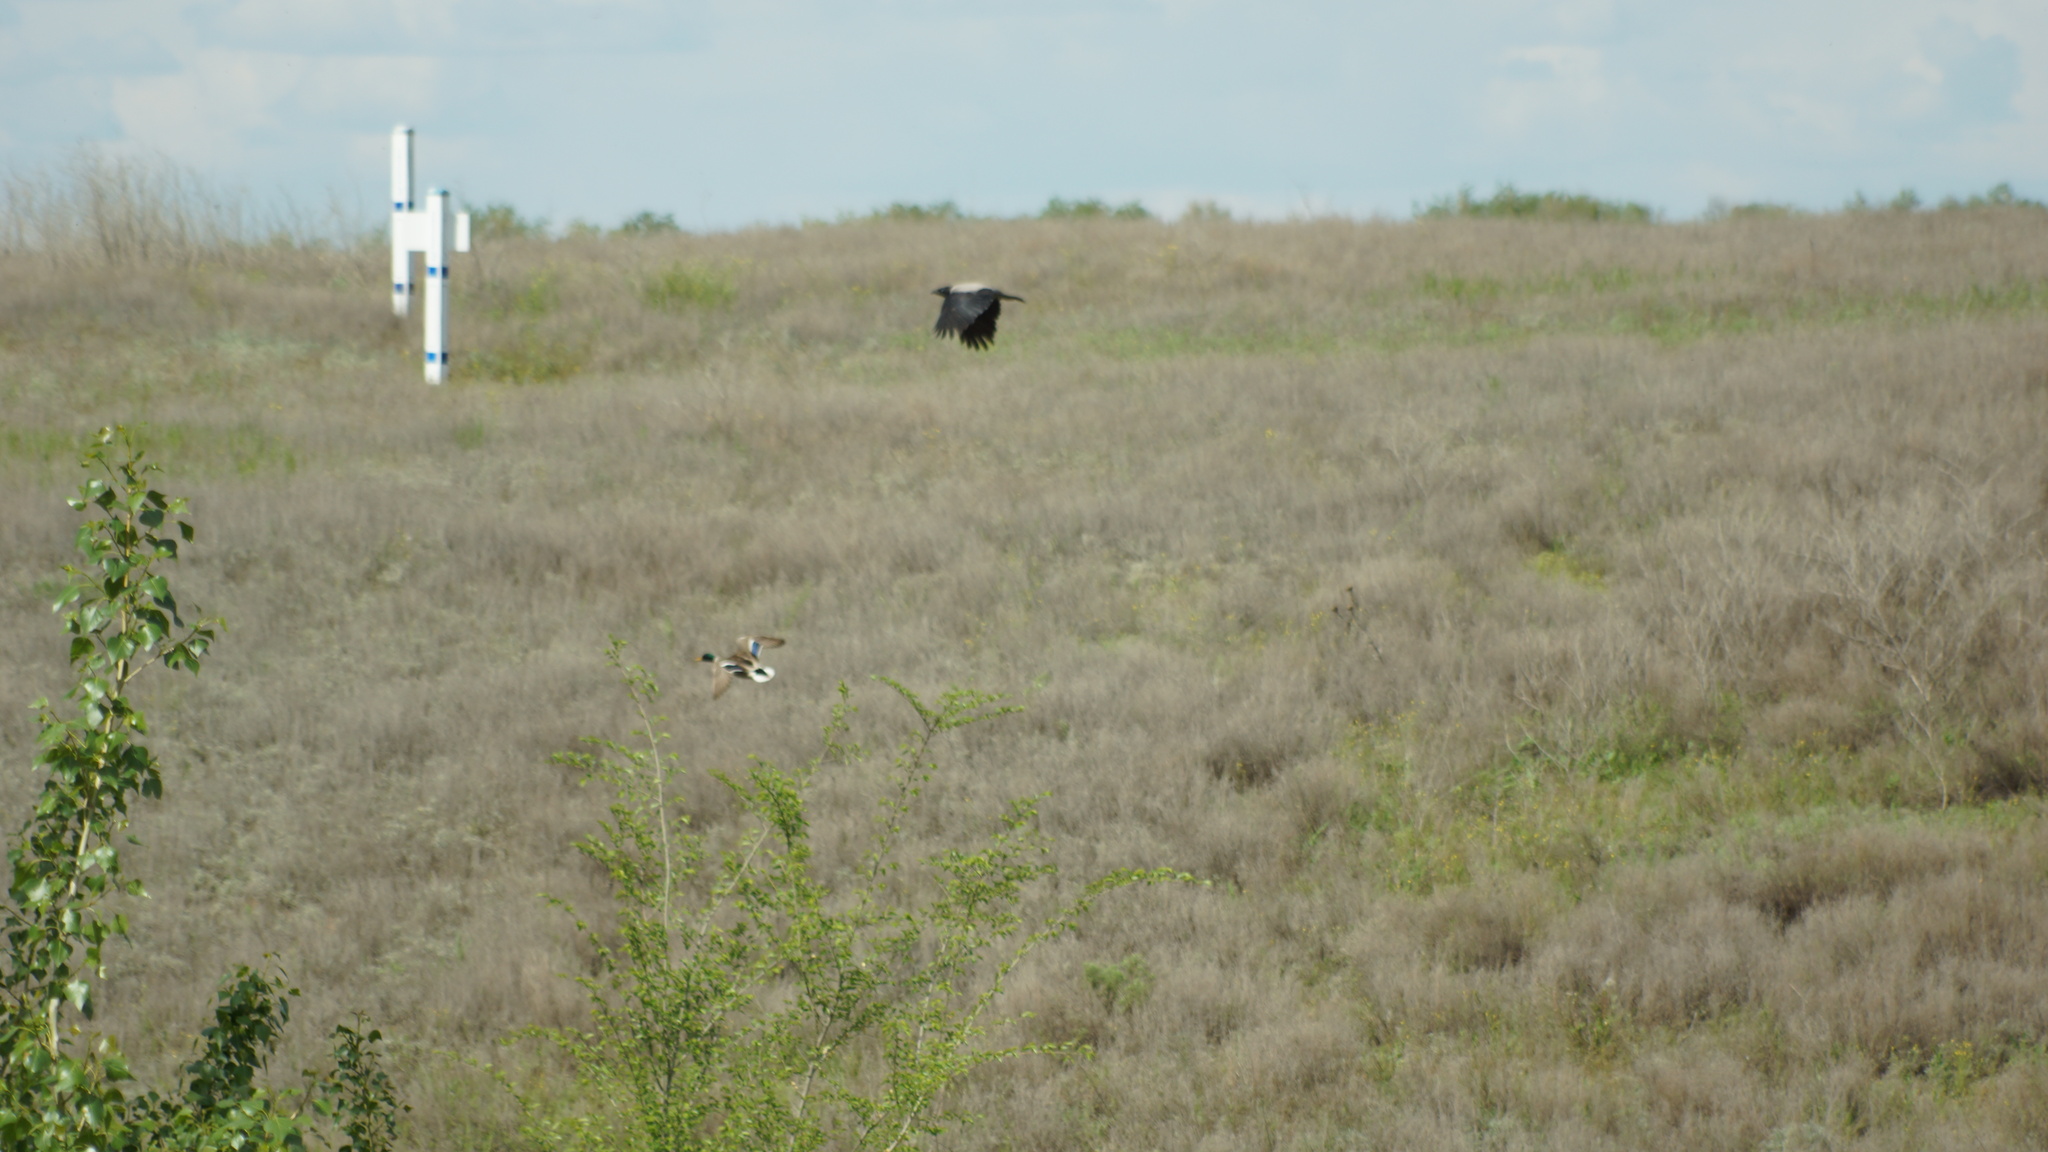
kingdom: Animalia
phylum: Chordata
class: Aves
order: Passeriformes
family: Corvidae
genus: Corvus
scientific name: Corvus cornix
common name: Hooded crow
